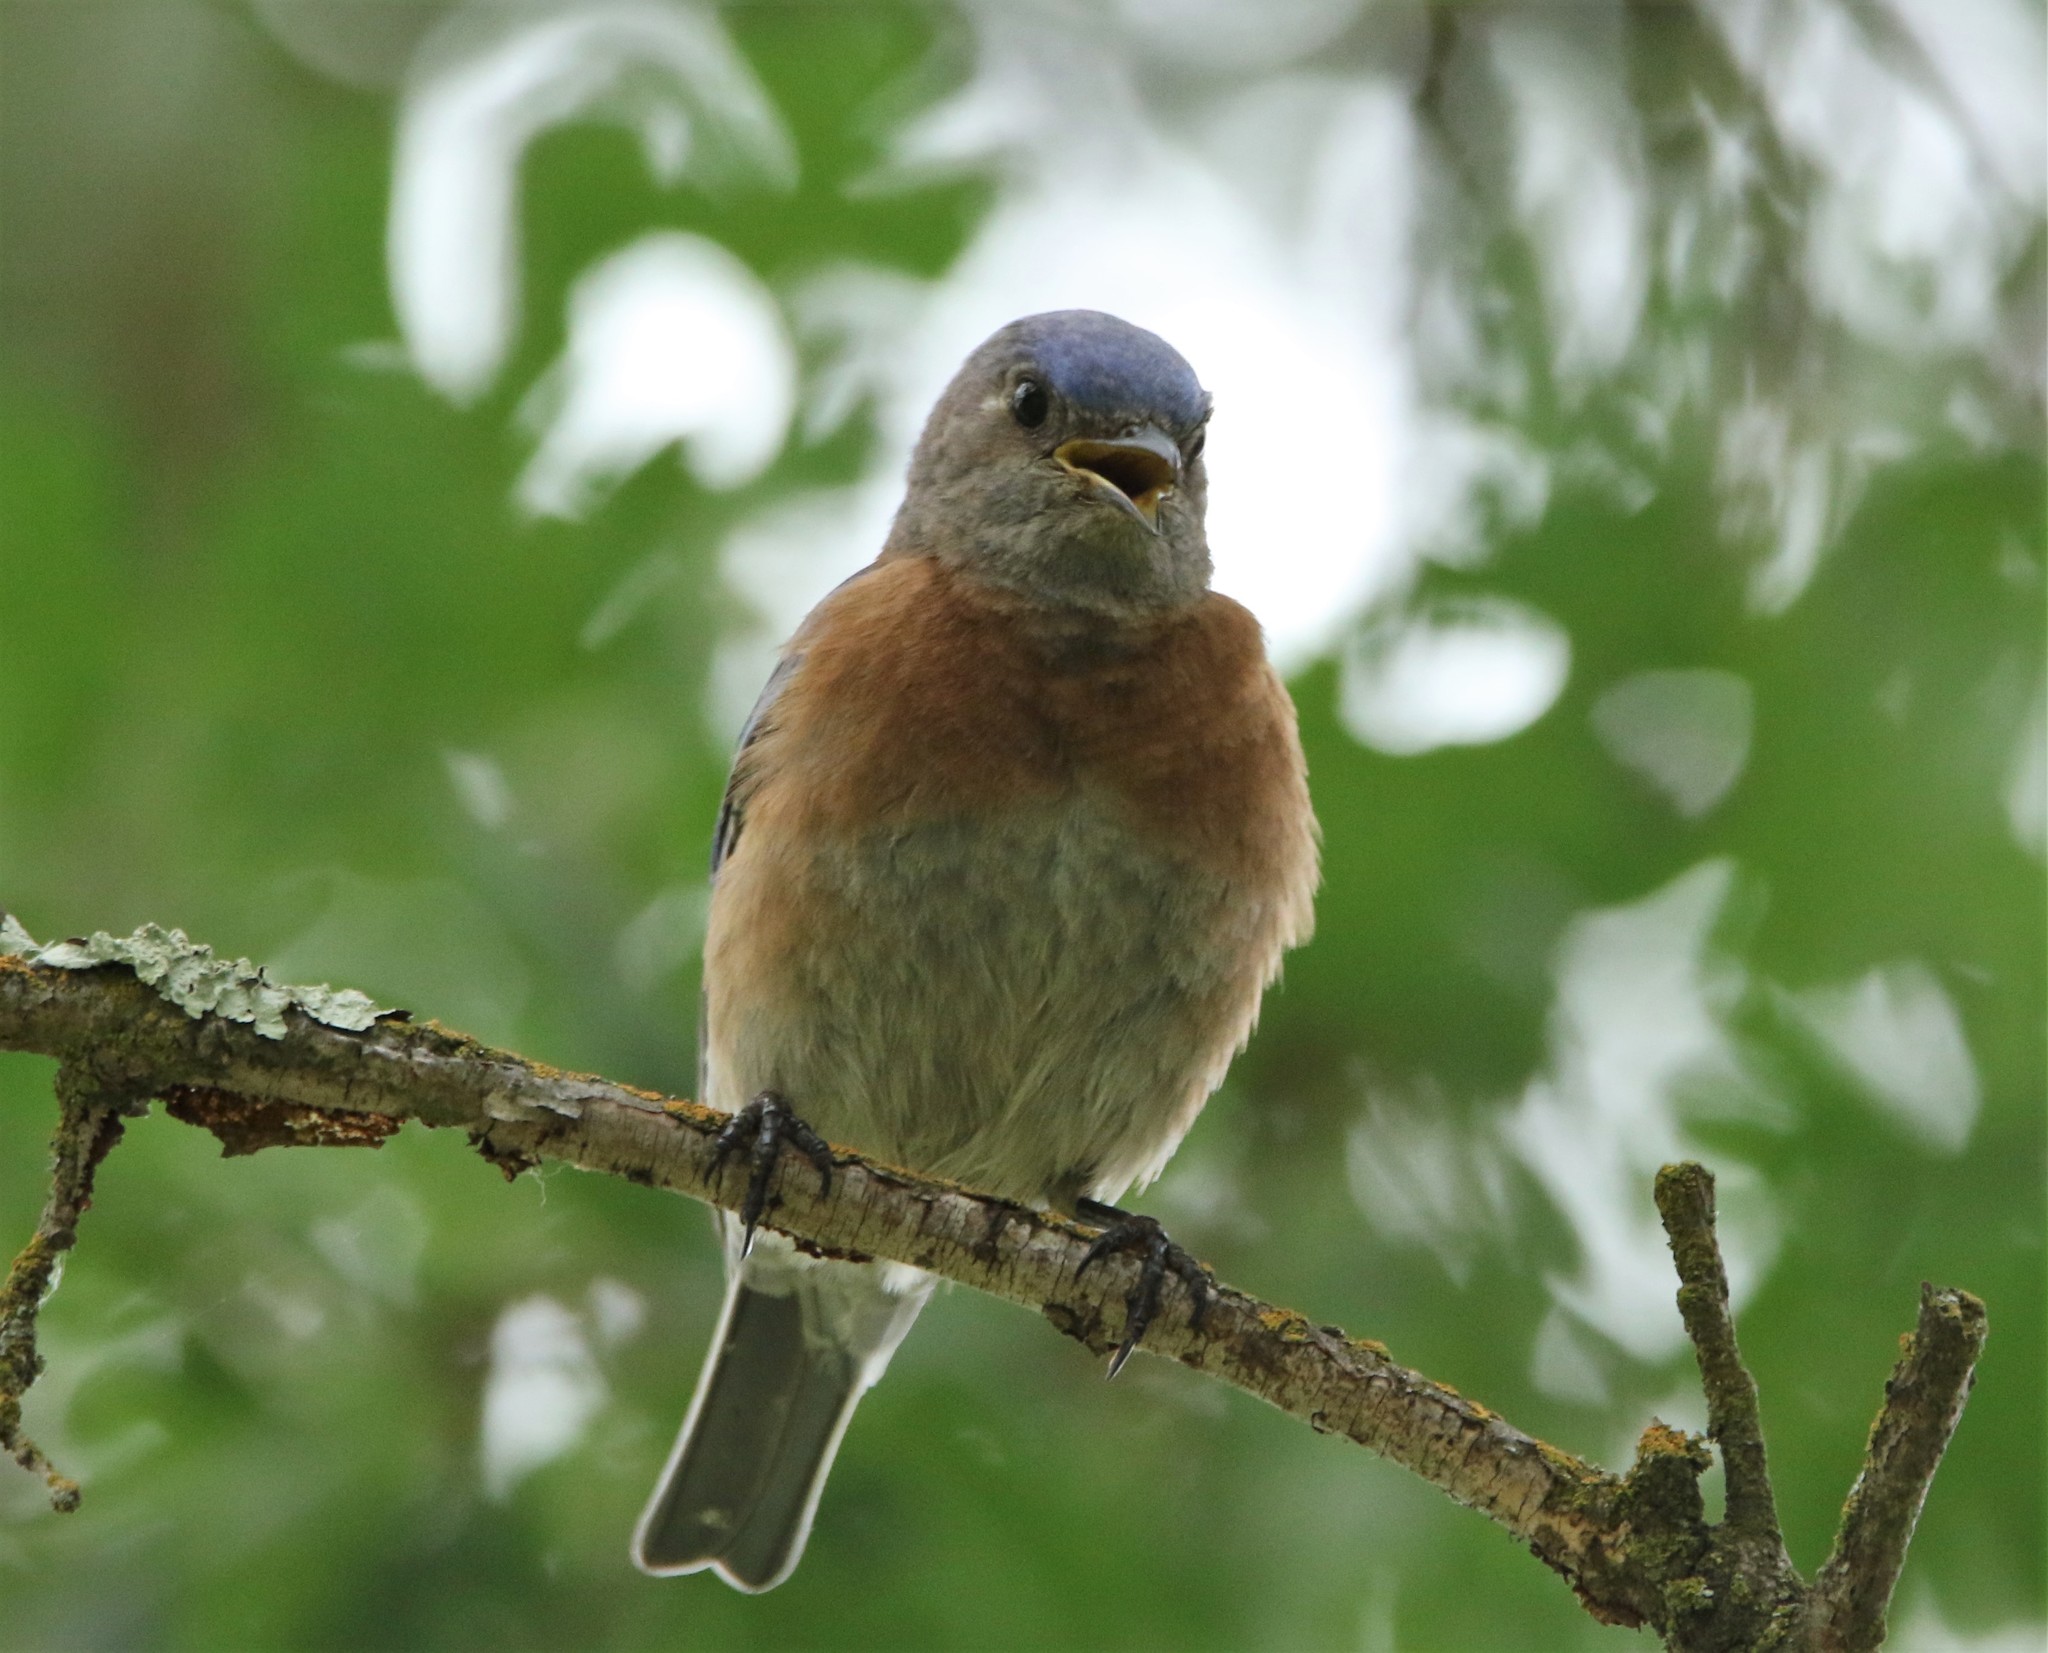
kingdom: Animalia
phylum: Chordata
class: Aves
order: Passeriformes
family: Turdidae
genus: Sialia
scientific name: Sialia mexicana
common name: Western bluebird
